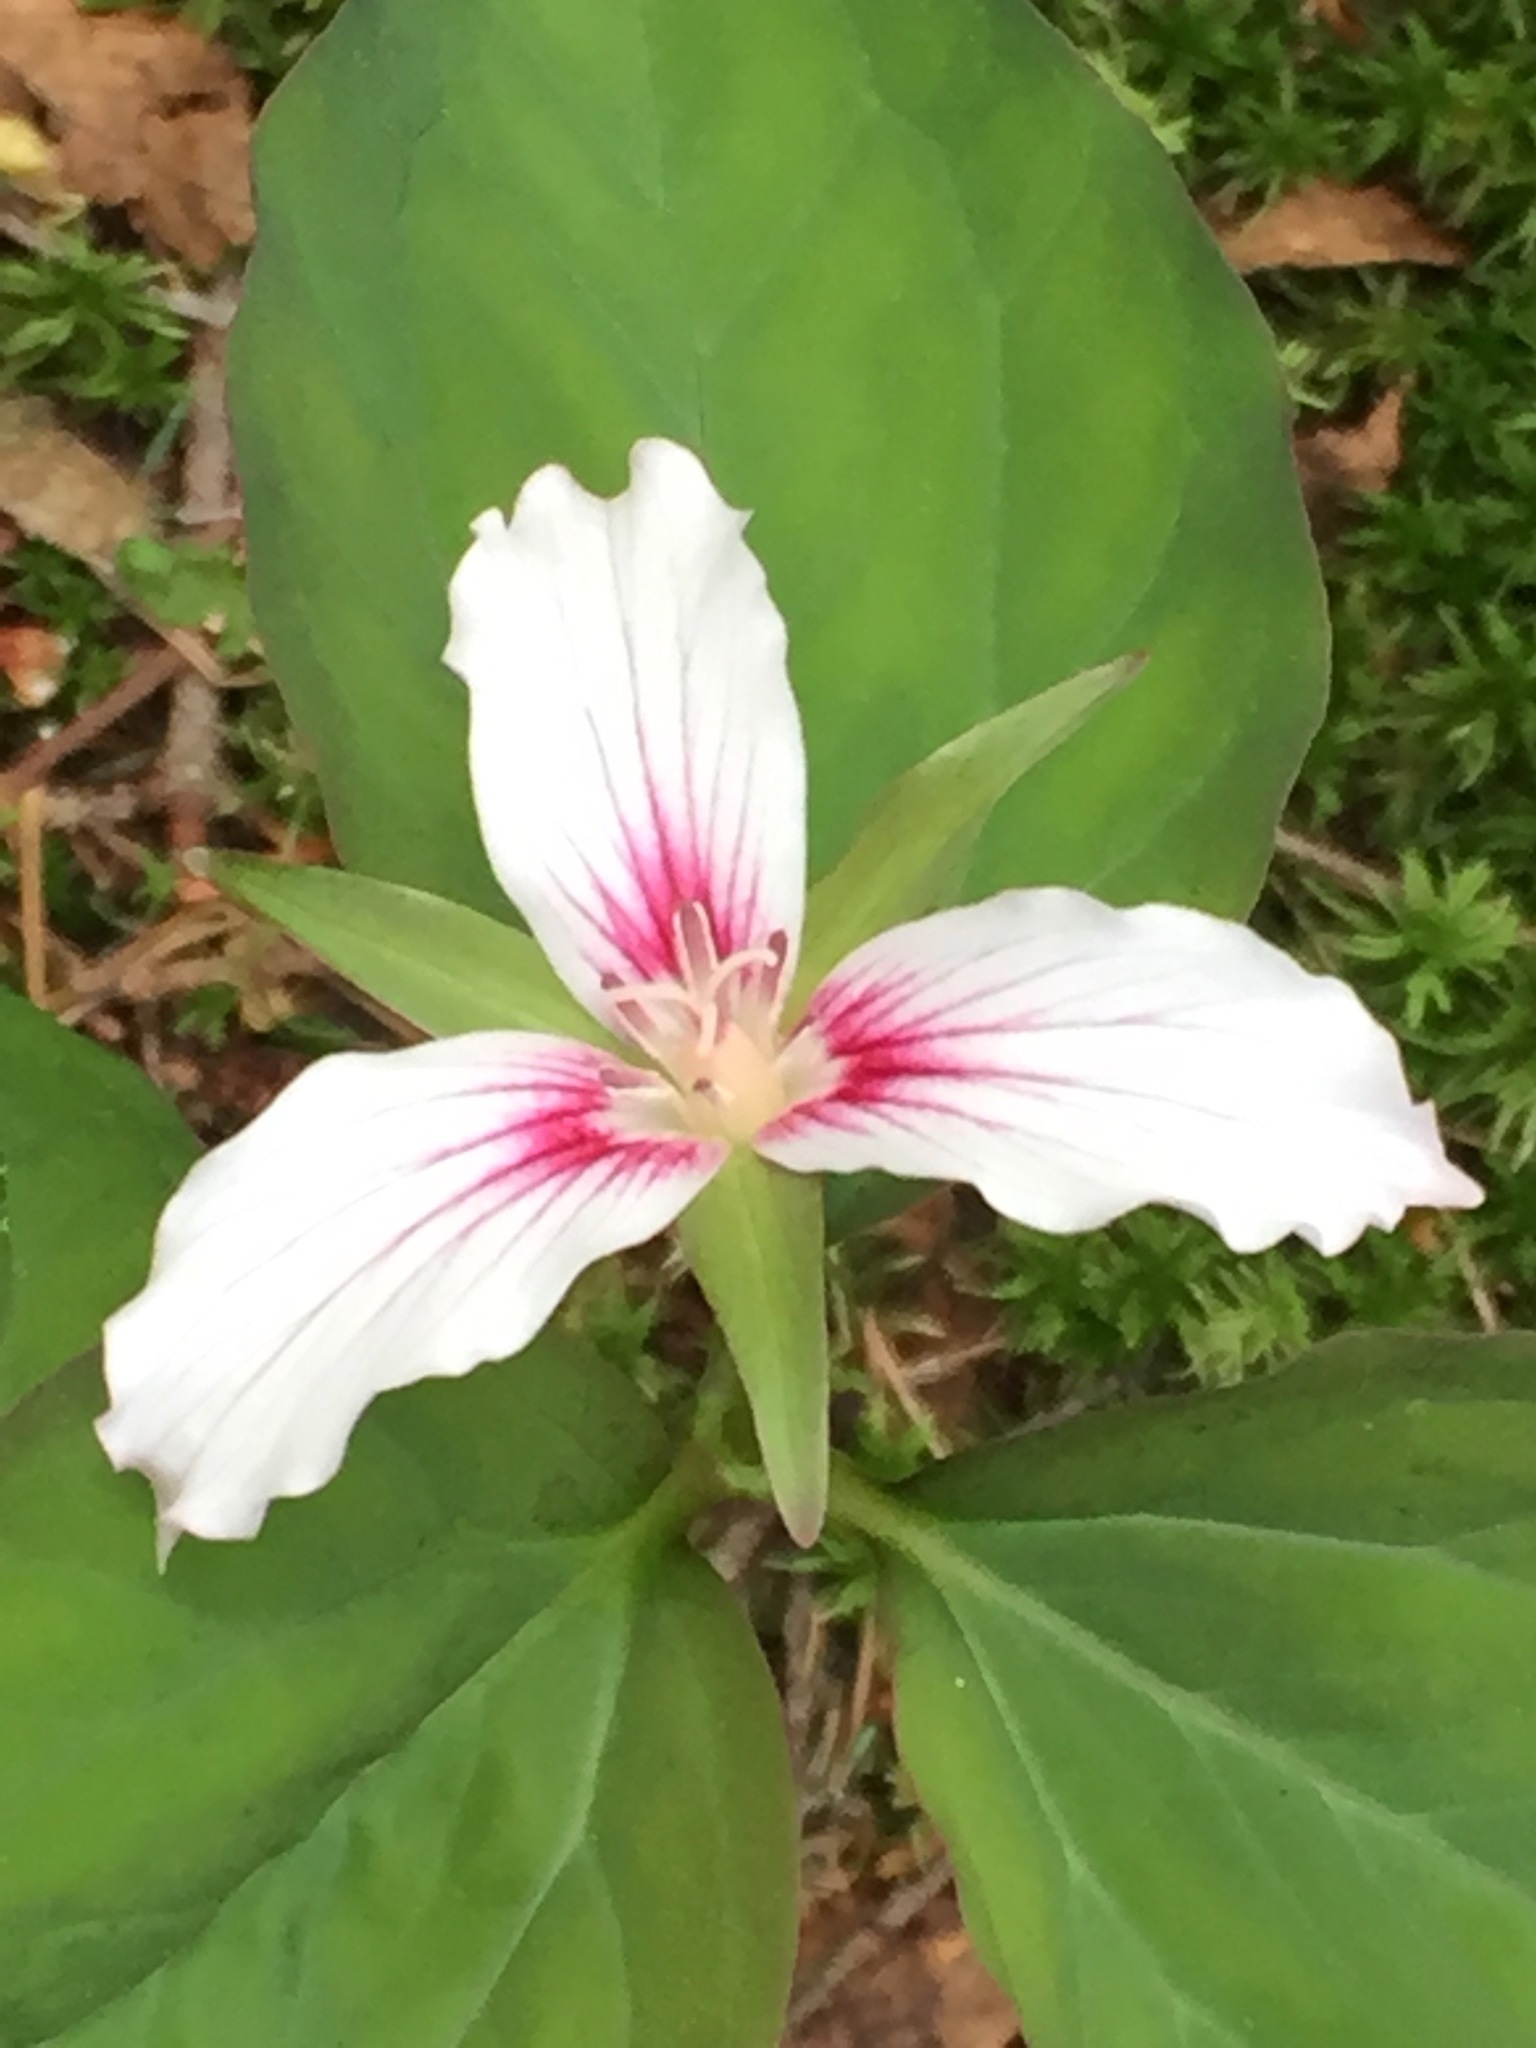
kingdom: Plantae
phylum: Tracheophyta
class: Liliopsida
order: Liliales
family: Melanthiaceae
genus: Trillium
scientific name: Trillium undulatum
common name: Paint trillium
